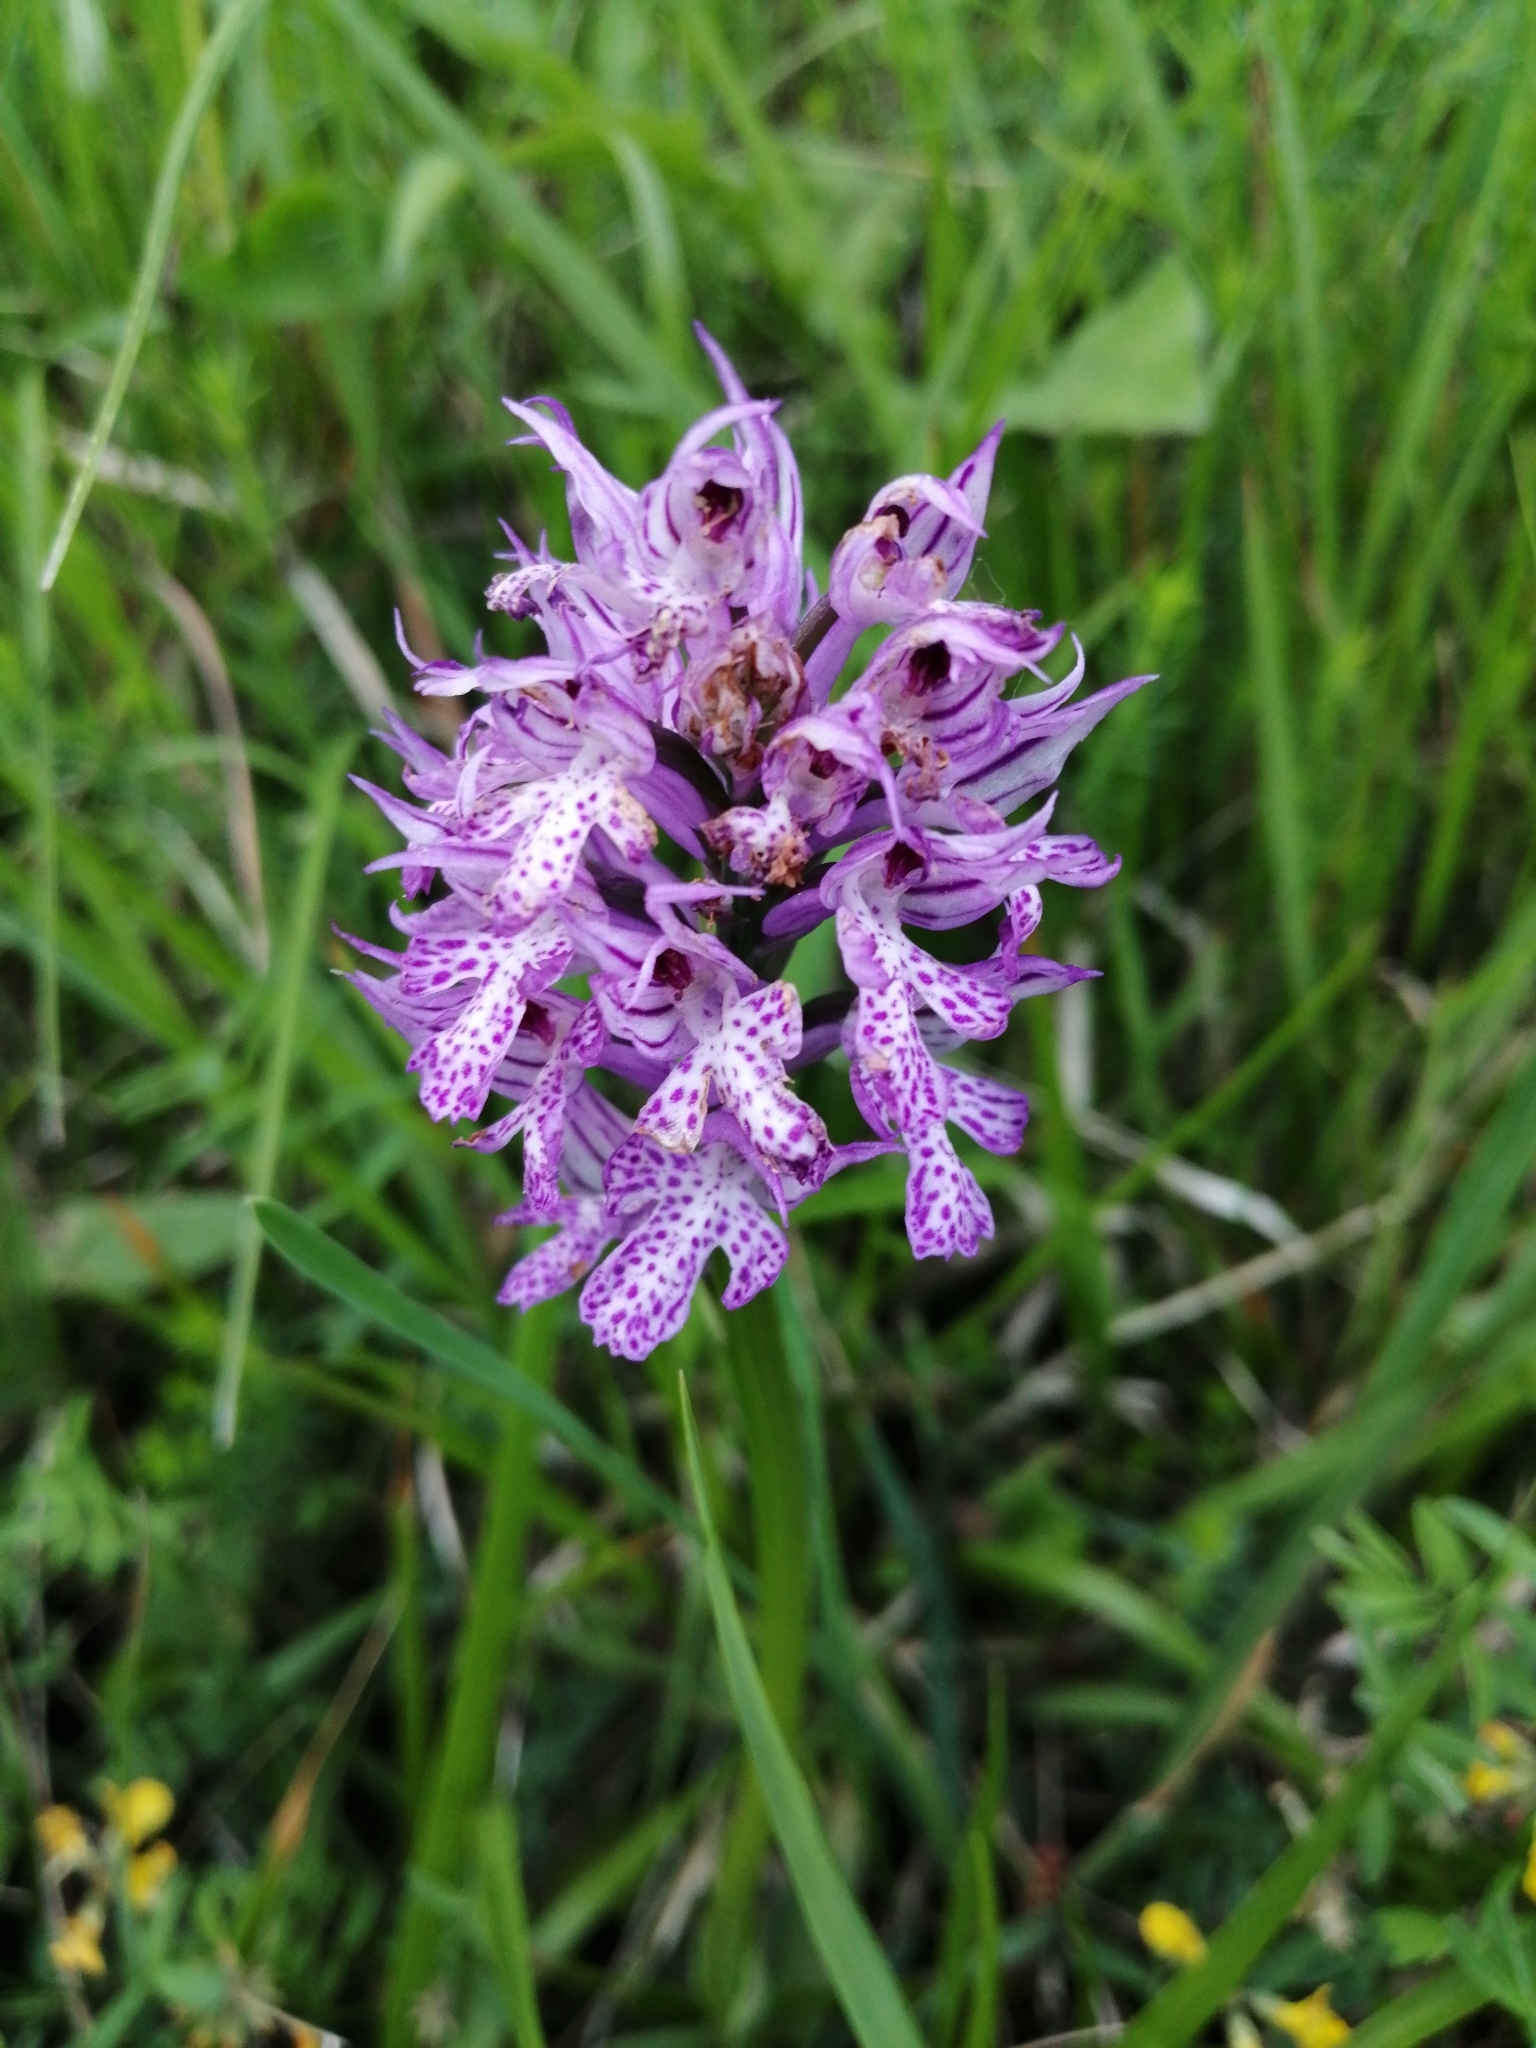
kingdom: Plantae
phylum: Tracheophyta
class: Liliopsida
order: Asparagales
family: Orchidaceae
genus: Neotinea
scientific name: Neotinea tridentata
